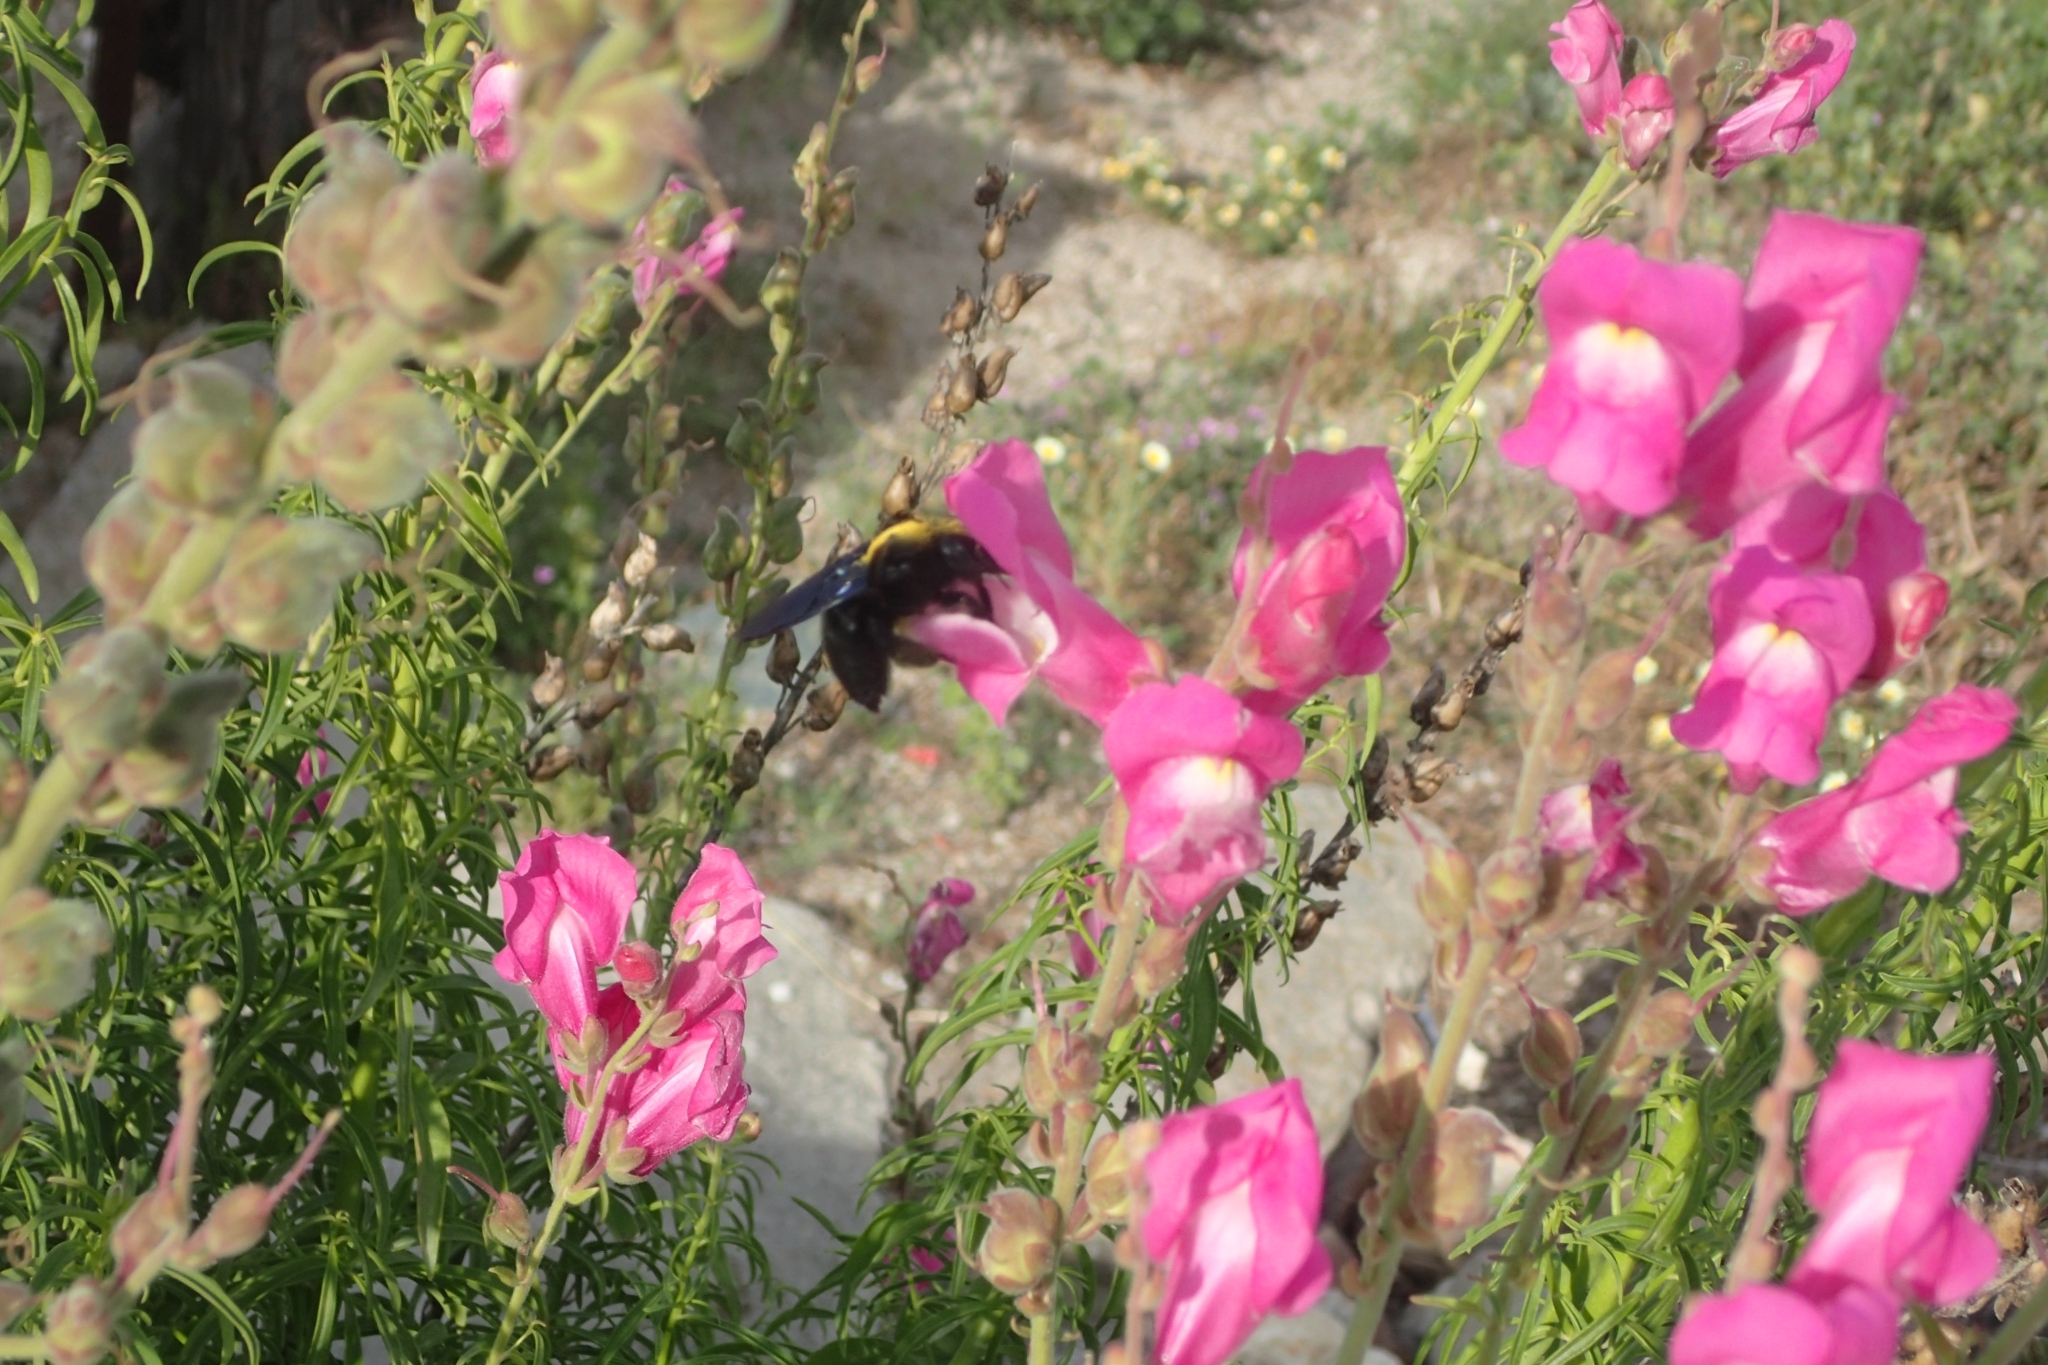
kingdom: Animalia
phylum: Arthropoda
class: Insecta
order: Hymenoptera
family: Apidae
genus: Xylocopa
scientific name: Xylocopa violacea
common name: Violet carpenter bee
